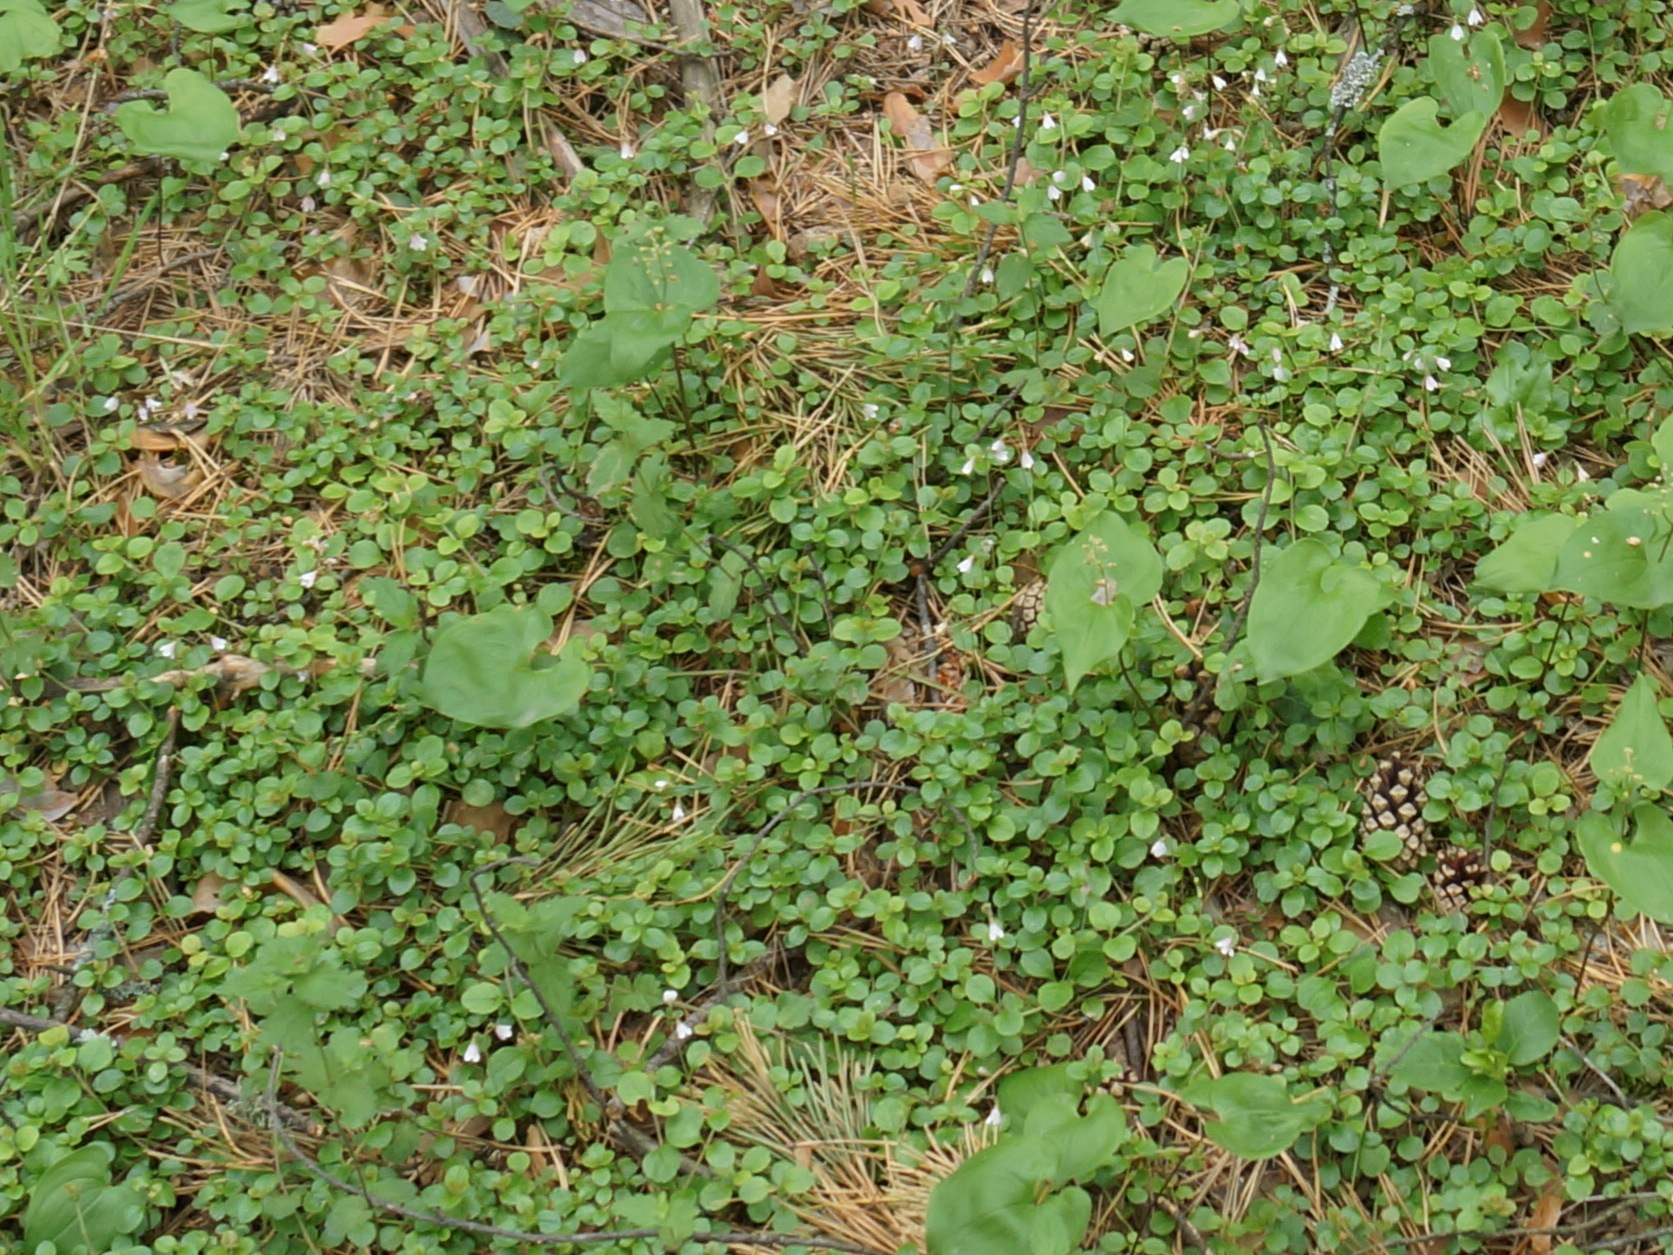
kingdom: Plantae
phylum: Tracheophyta
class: Magnoliopsida
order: Dipsacales
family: Caprifoliaceae
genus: Linnaea
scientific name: Linnaea borealis
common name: Twinflower
